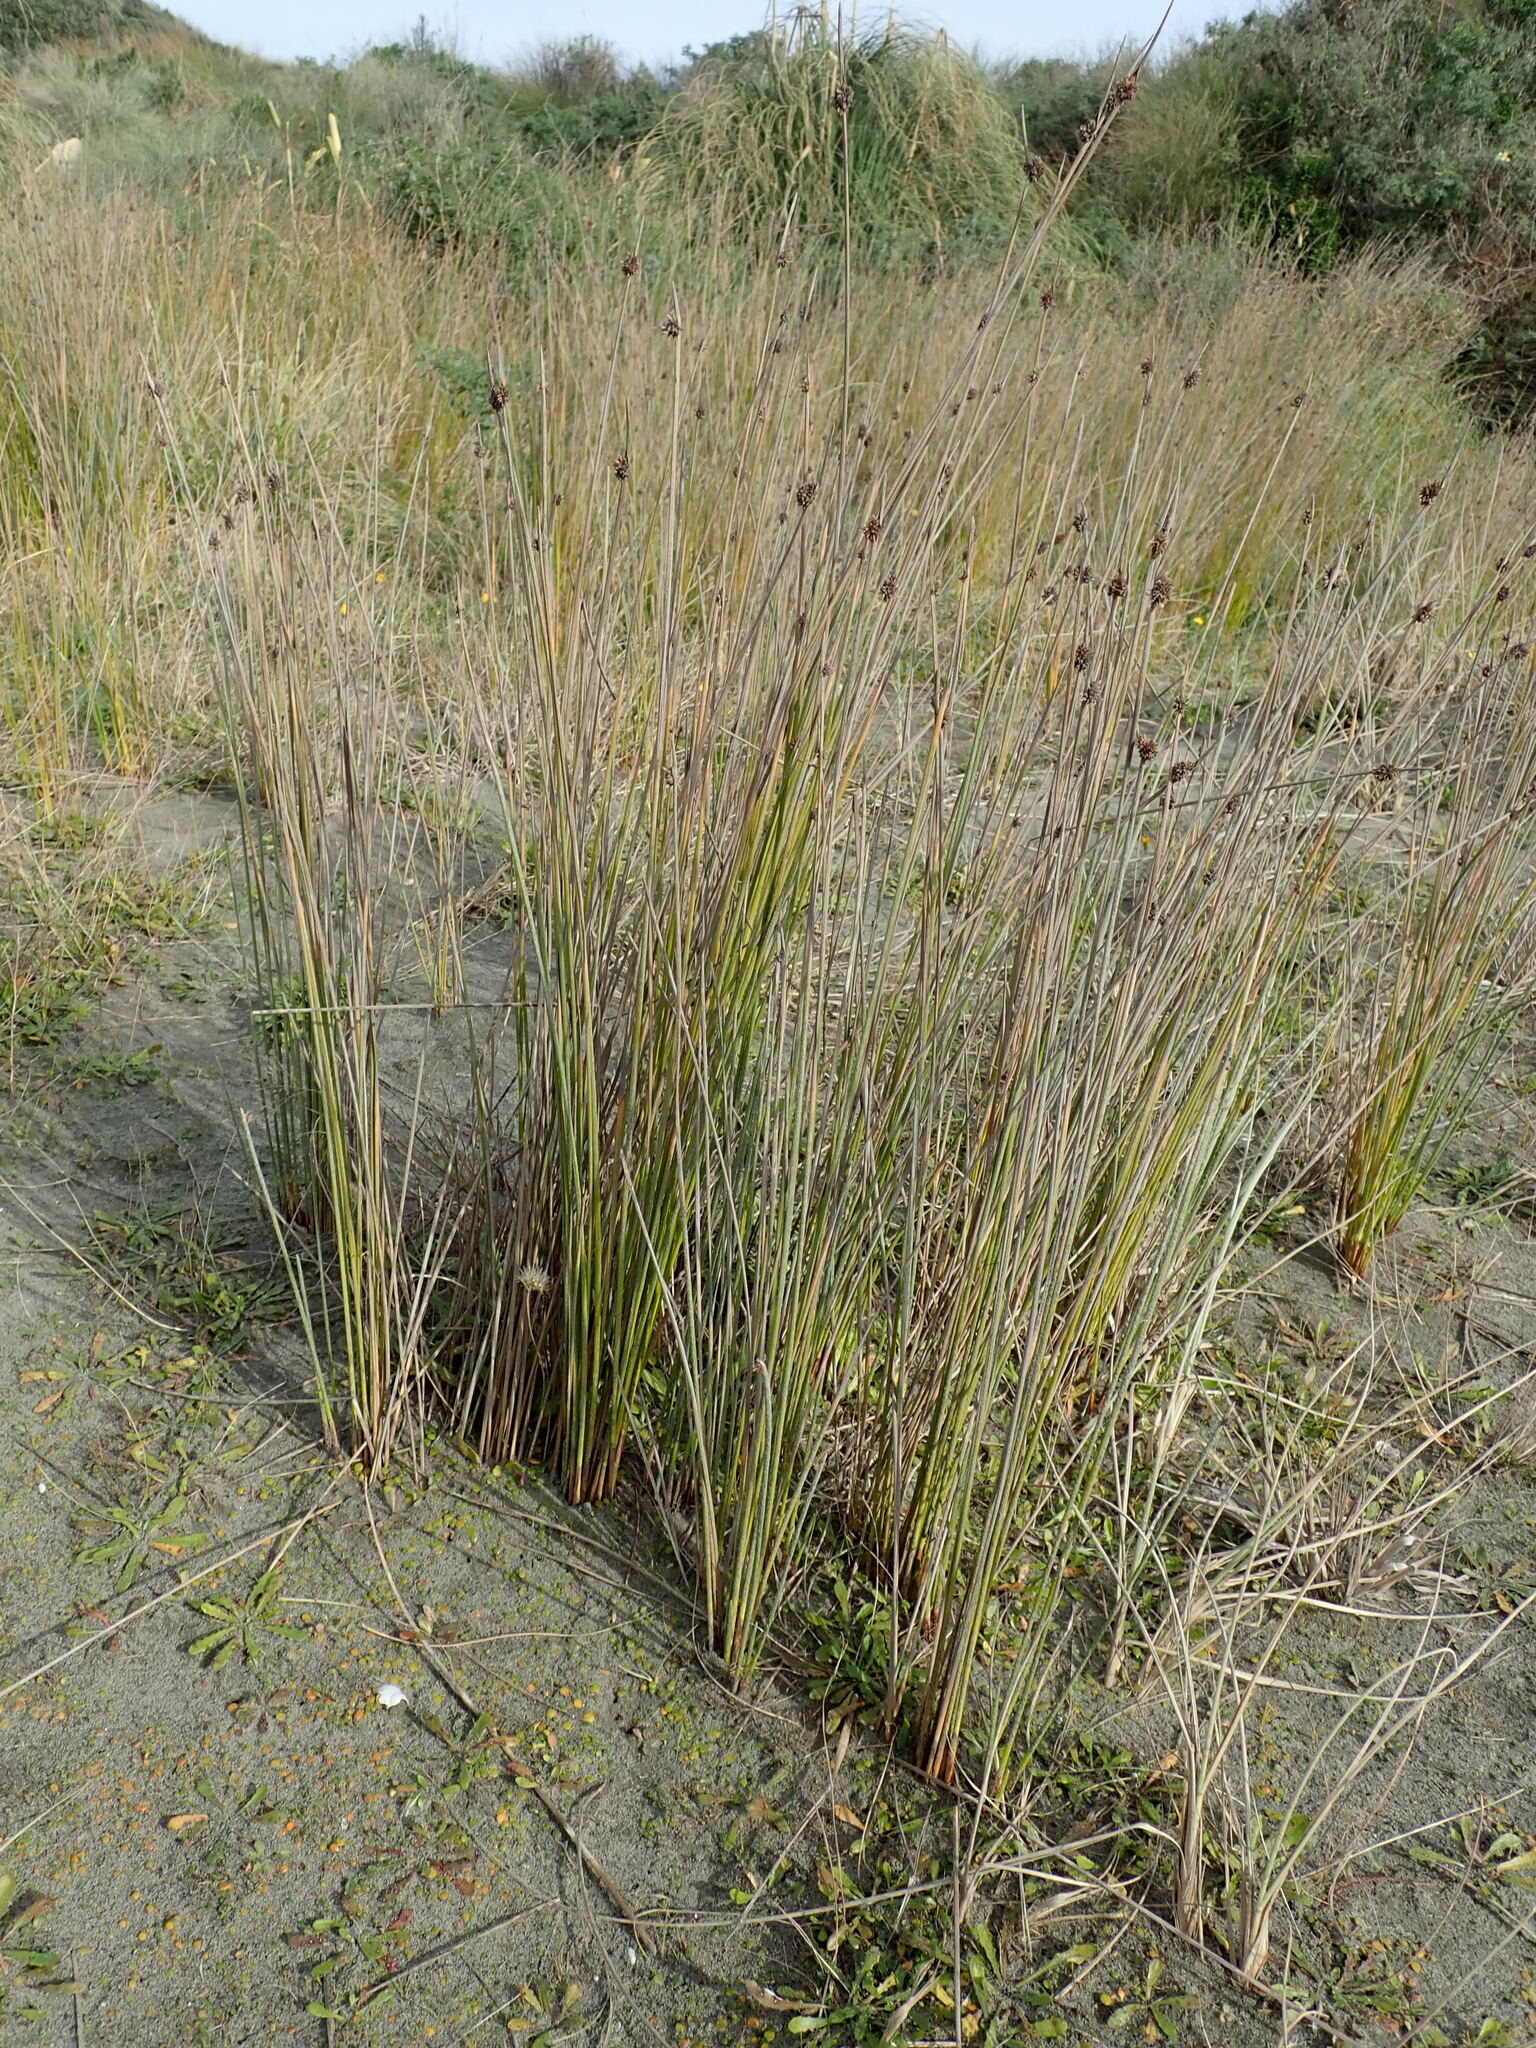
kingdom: Plantae
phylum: Tracheophyta
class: Liliopsida
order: Poales
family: Cyperaceae
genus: Ficinia
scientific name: Ficinia nodosa
